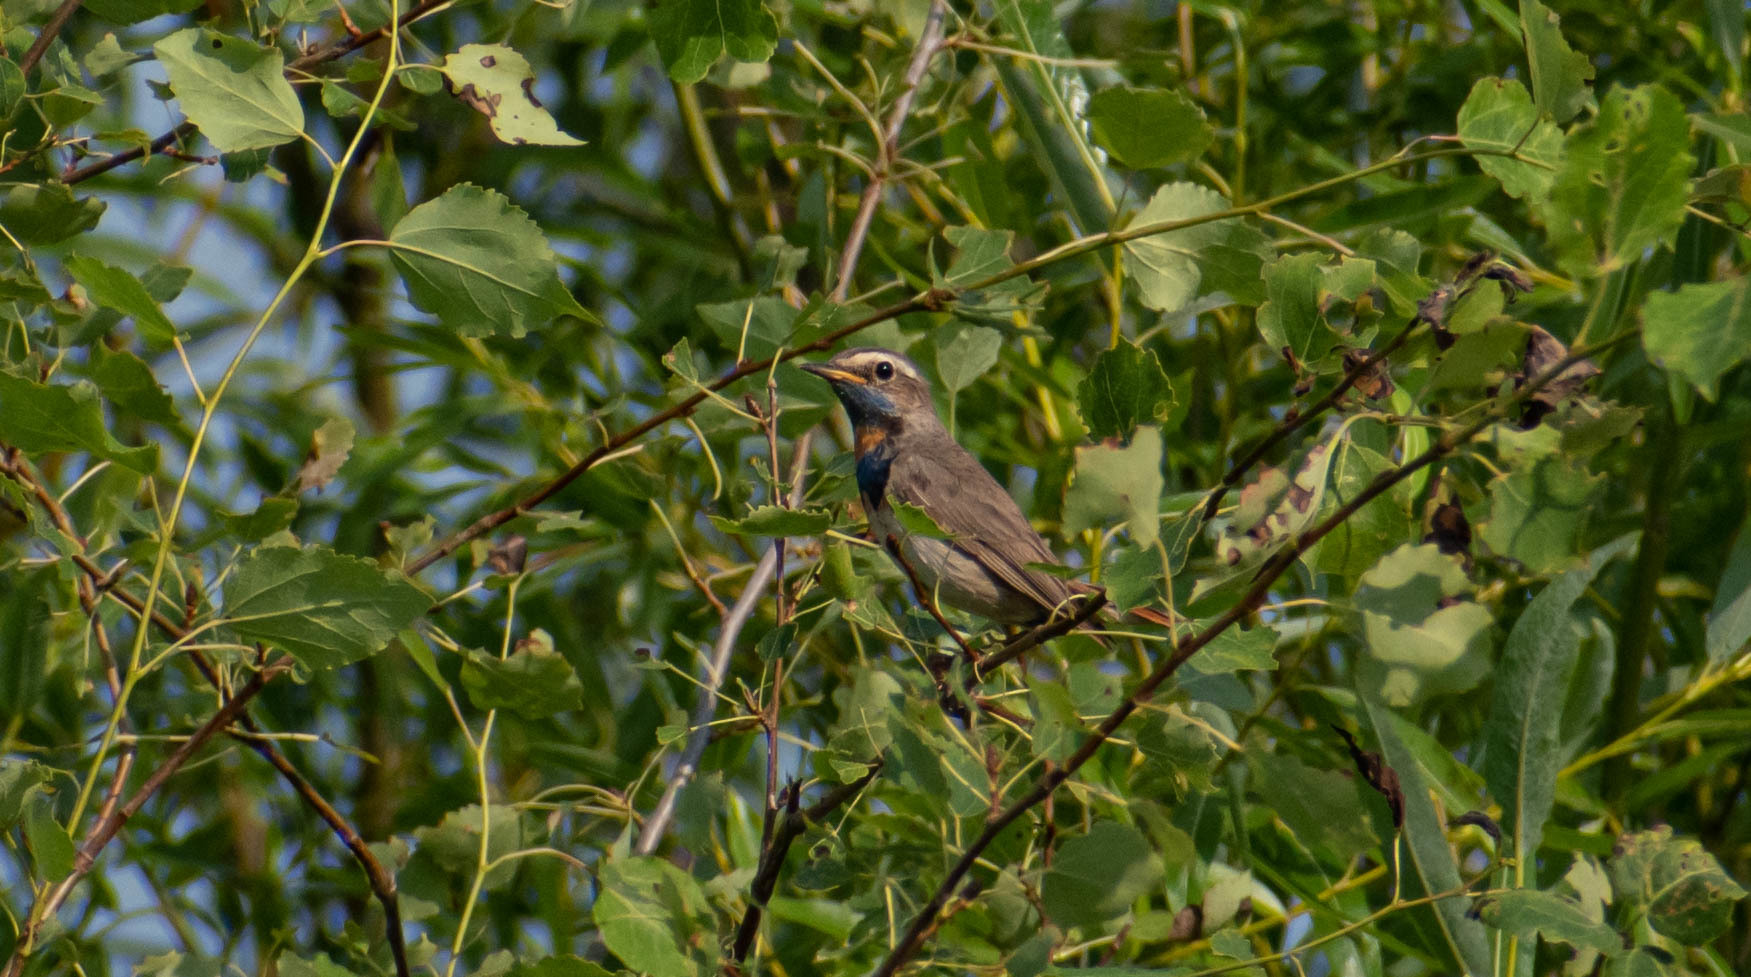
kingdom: Animalia
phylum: Chordata
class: Aves
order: Passeriformes
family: Muscicapidae
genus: Luscinia
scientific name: Luscinia svecica
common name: Bluethroat
